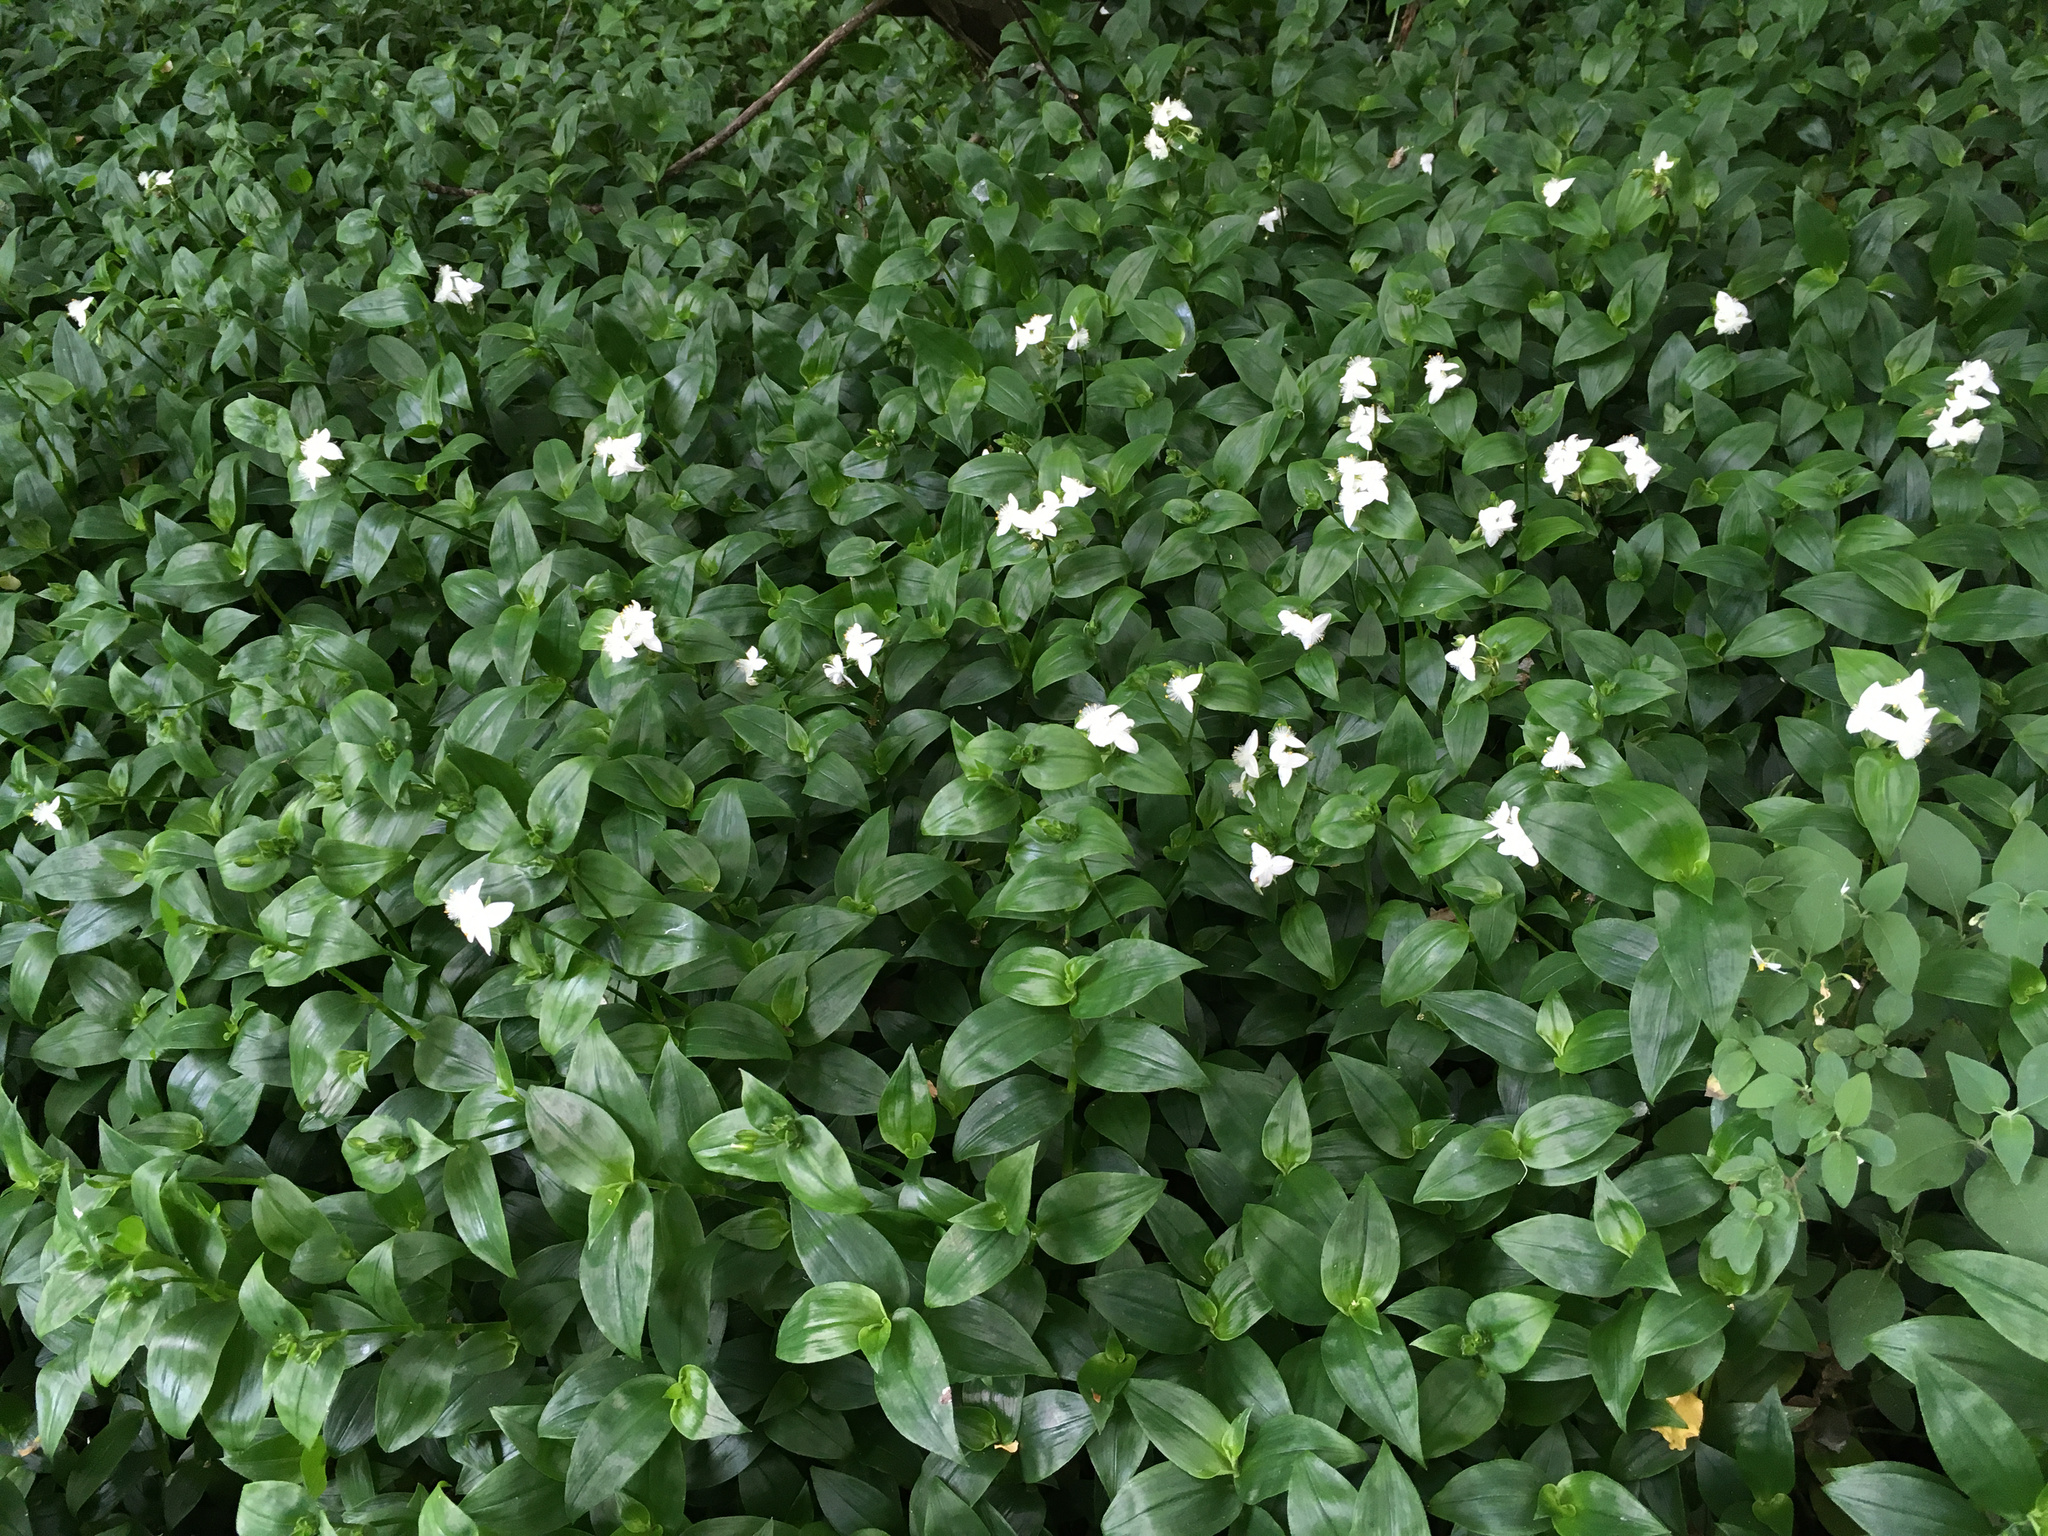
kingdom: Plantae
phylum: Tracheophyta
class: Liliopsida
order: Commelinales
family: Commelinaceae
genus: Tradescantia
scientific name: Tradescantia fluminensis
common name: Wandering-jew
